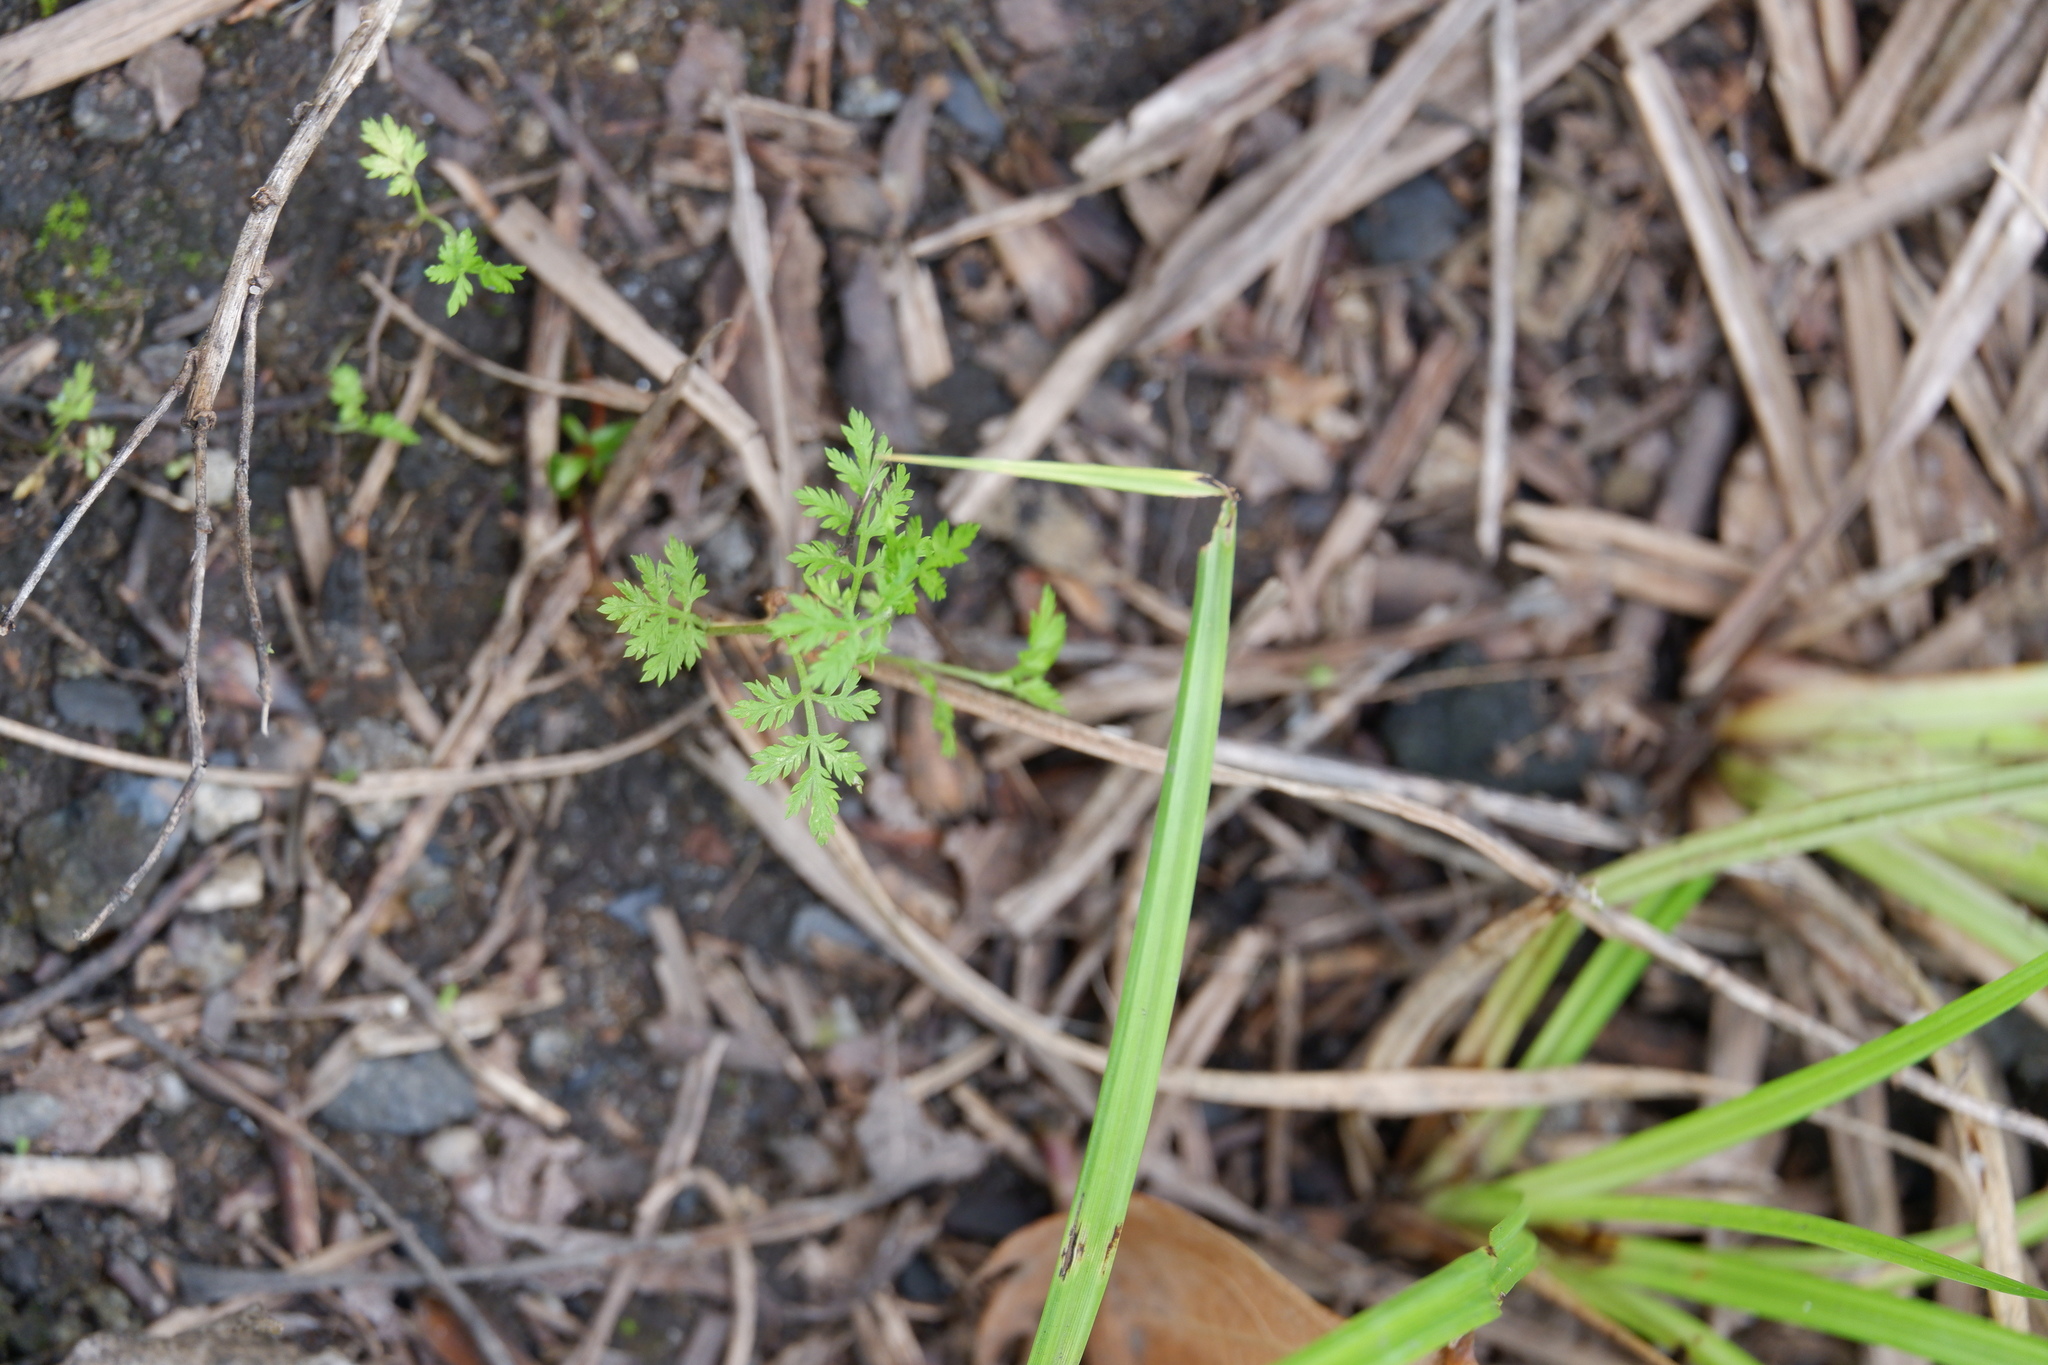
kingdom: Plantae
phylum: Tracheophyta
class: Magnoliopsida
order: Asterales
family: Asteraceae
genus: Artemisia
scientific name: Artemisia annua
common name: Sweet sagewort
